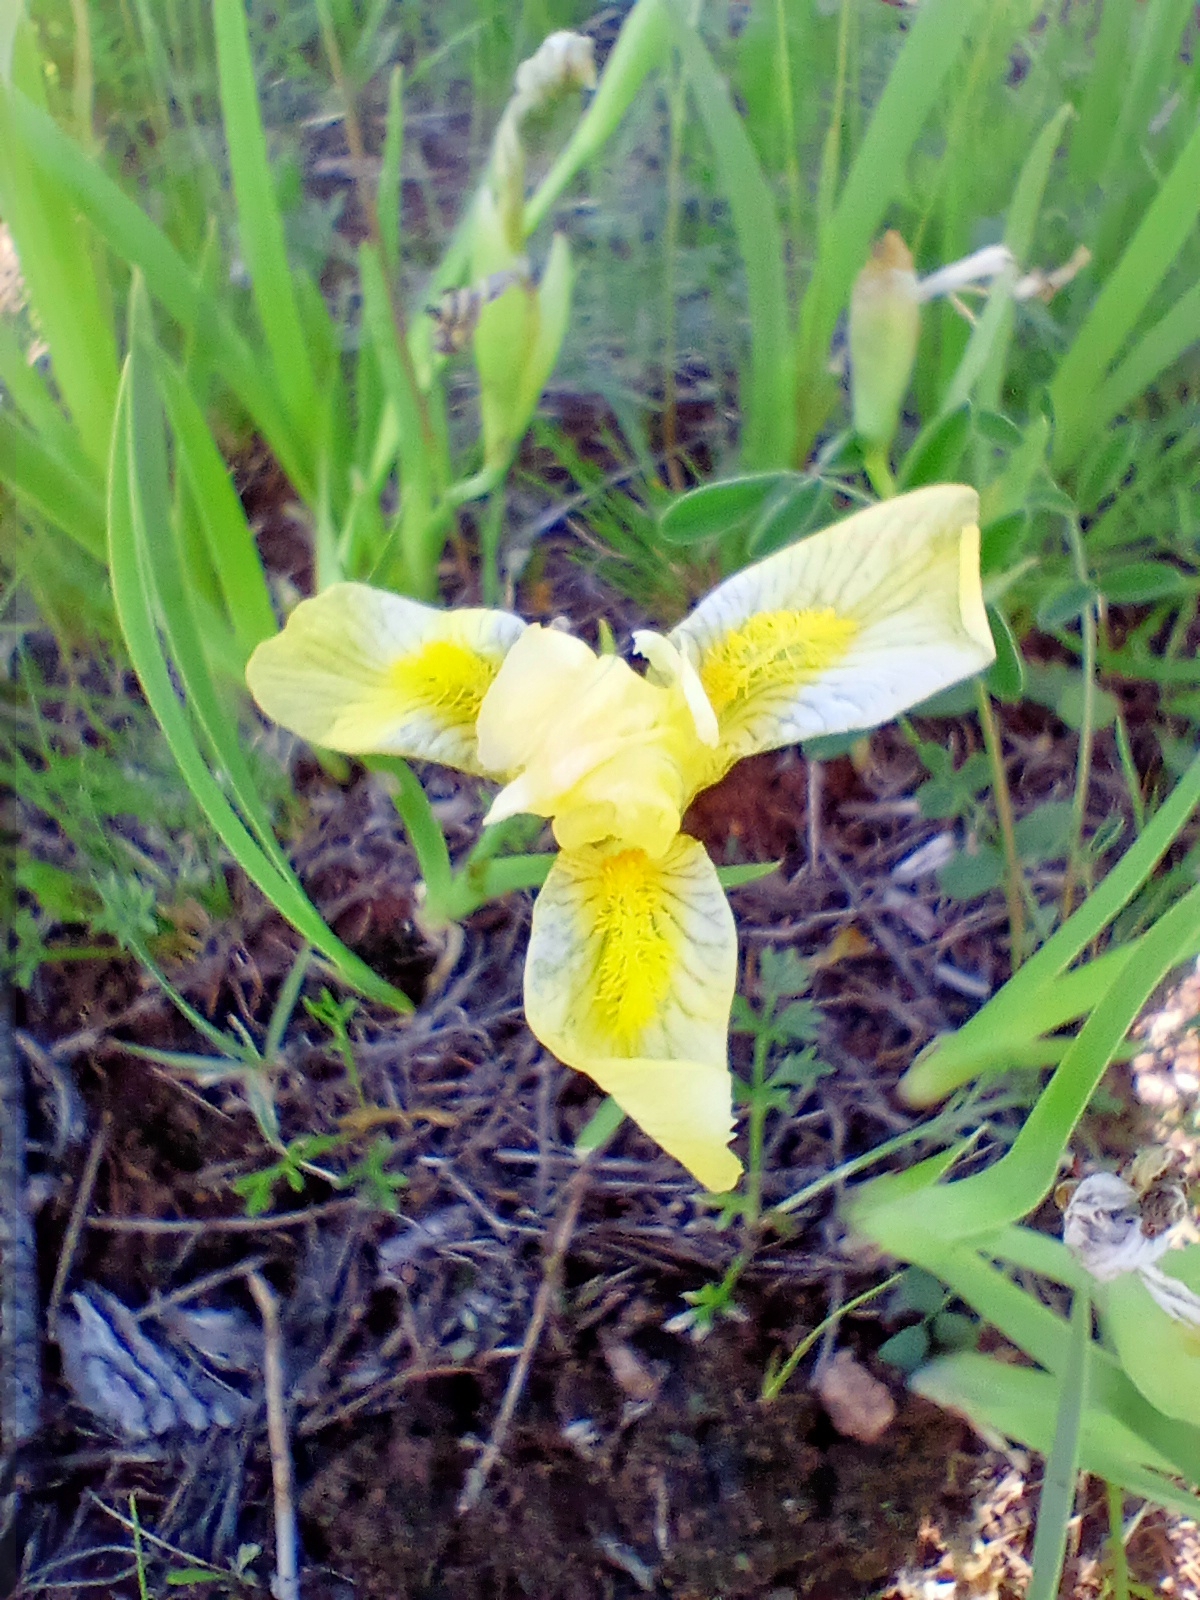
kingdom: Plantae
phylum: Tracheophyta
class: Liliopsida
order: Asparagales
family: Iridaceae
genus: Iris
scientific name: Iris humilis
